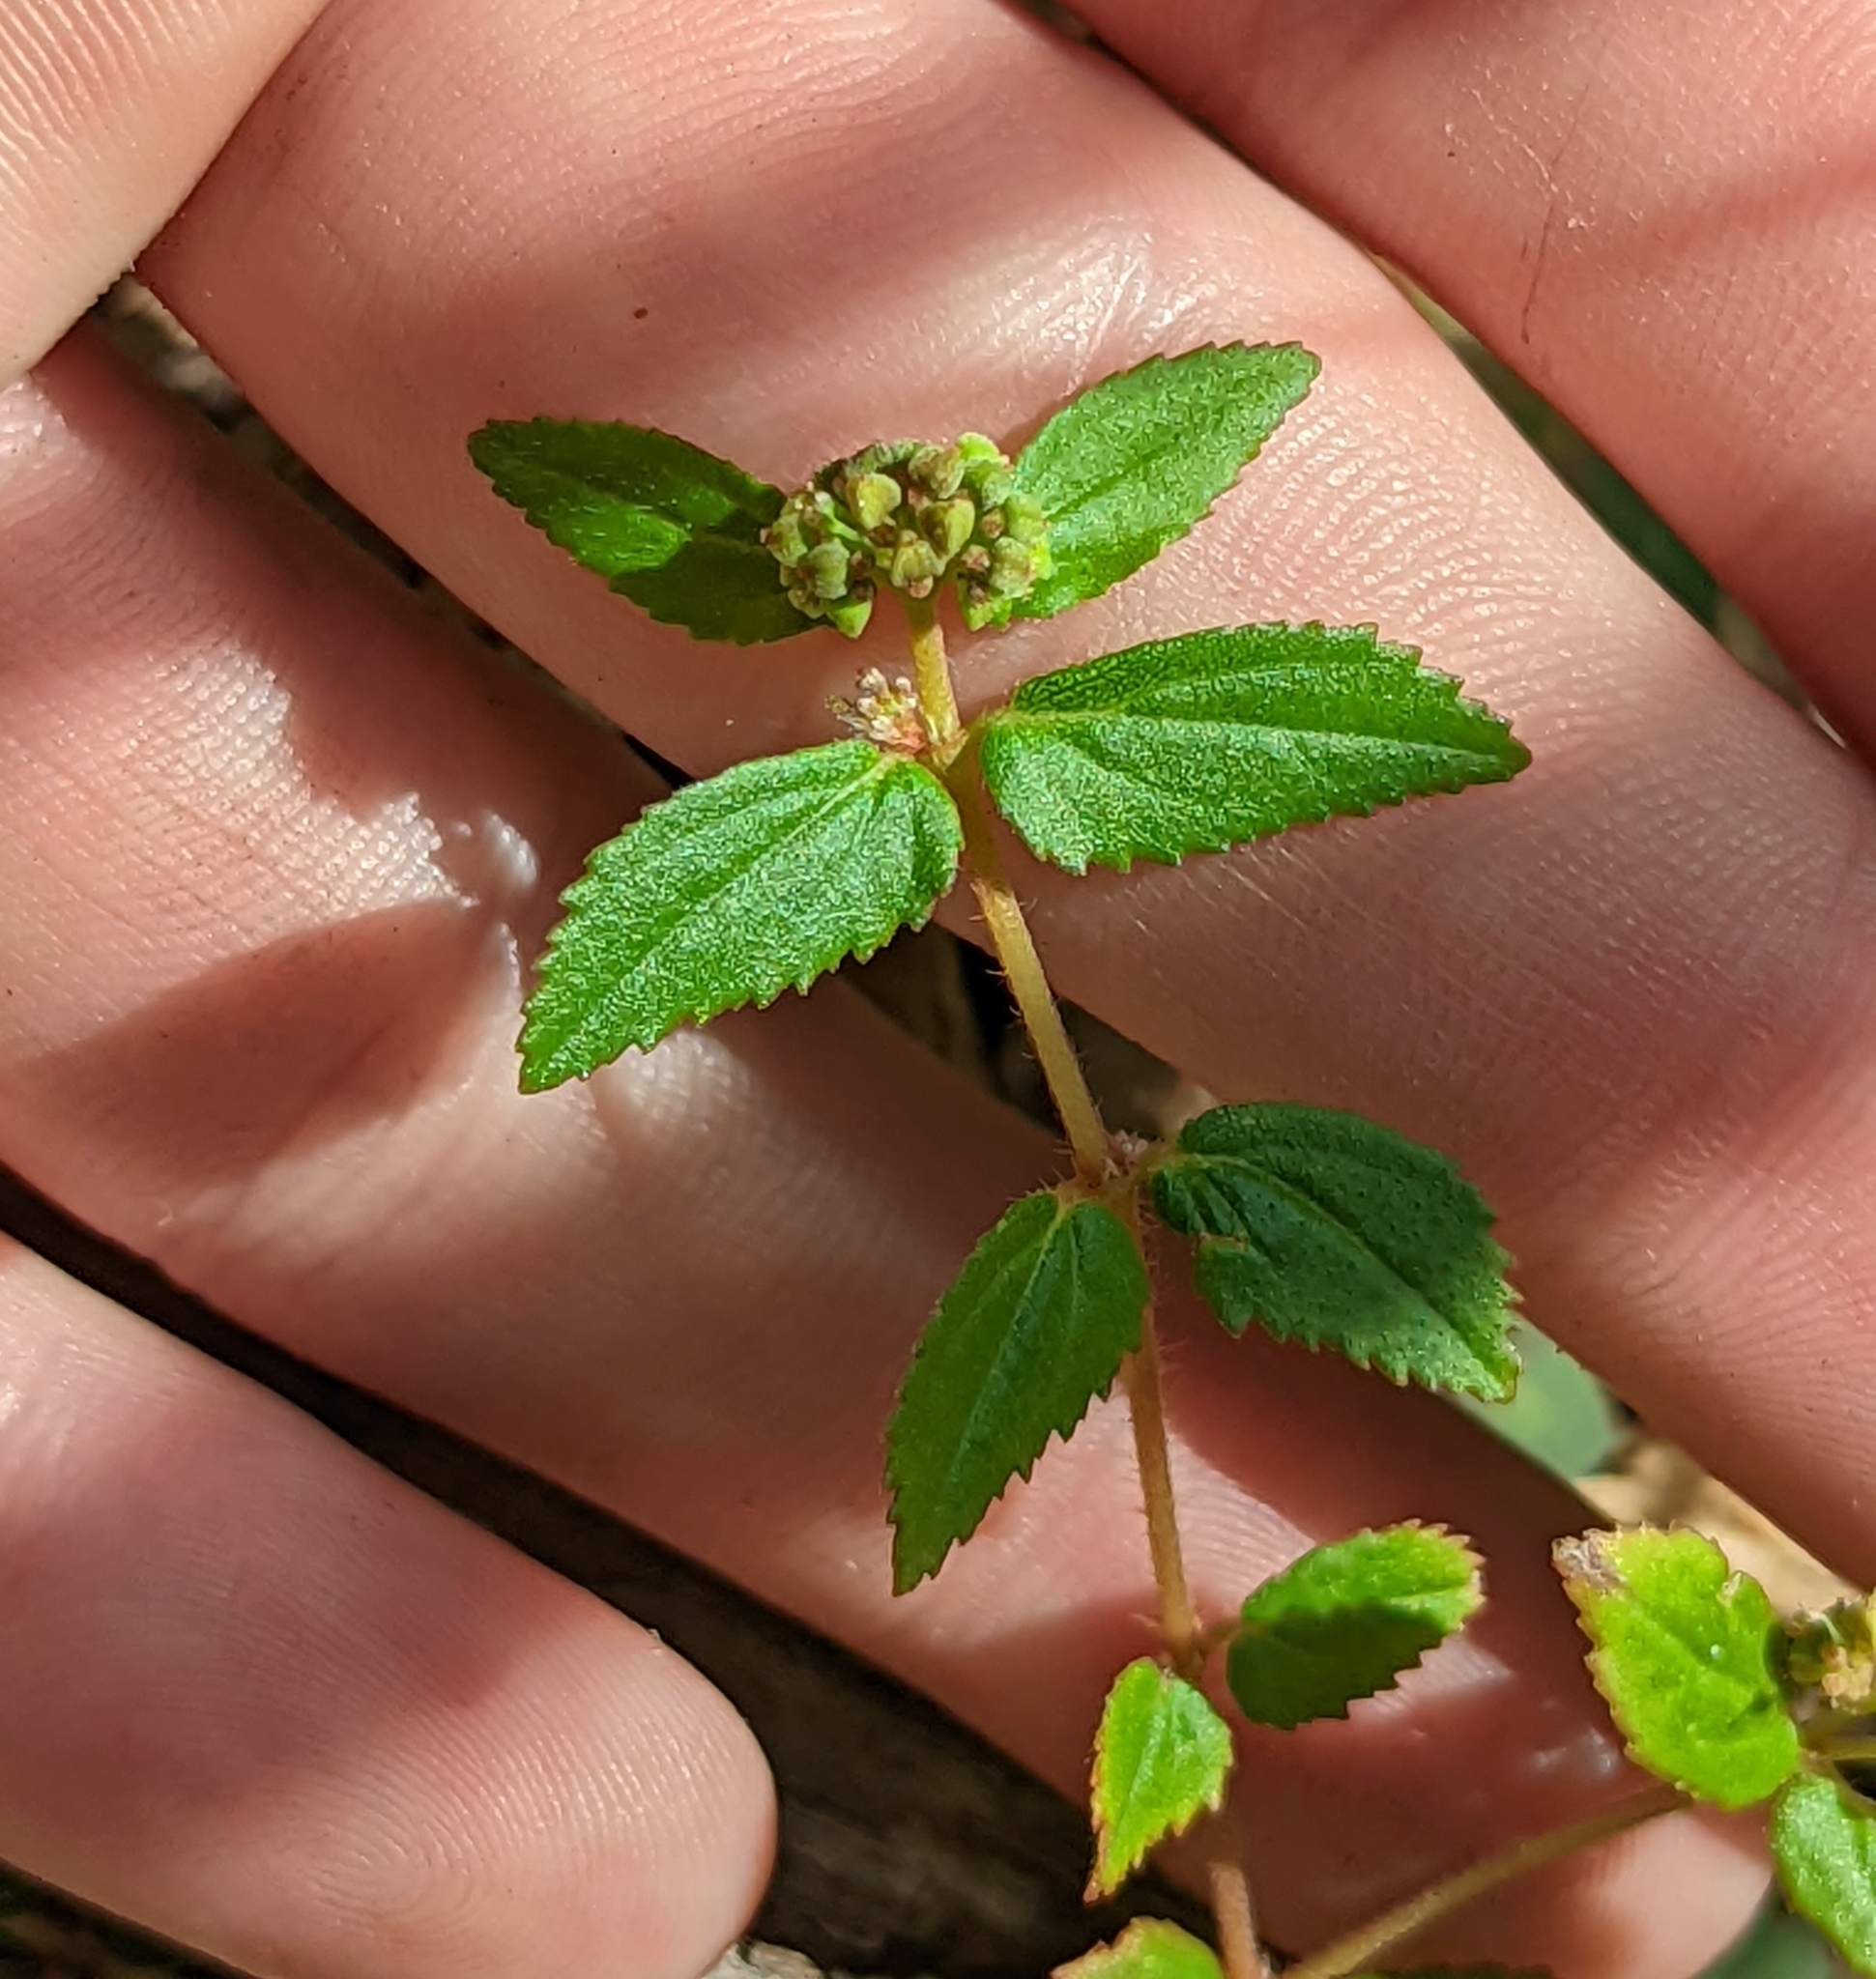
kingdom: Plantae
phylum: Tracheophyta
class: Magnoliopsida
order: Malpighiales
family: Euphorbiaceae
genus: Euphorbia
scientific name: Euphorbia ophthalmica
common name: Florida hammock sandmat
